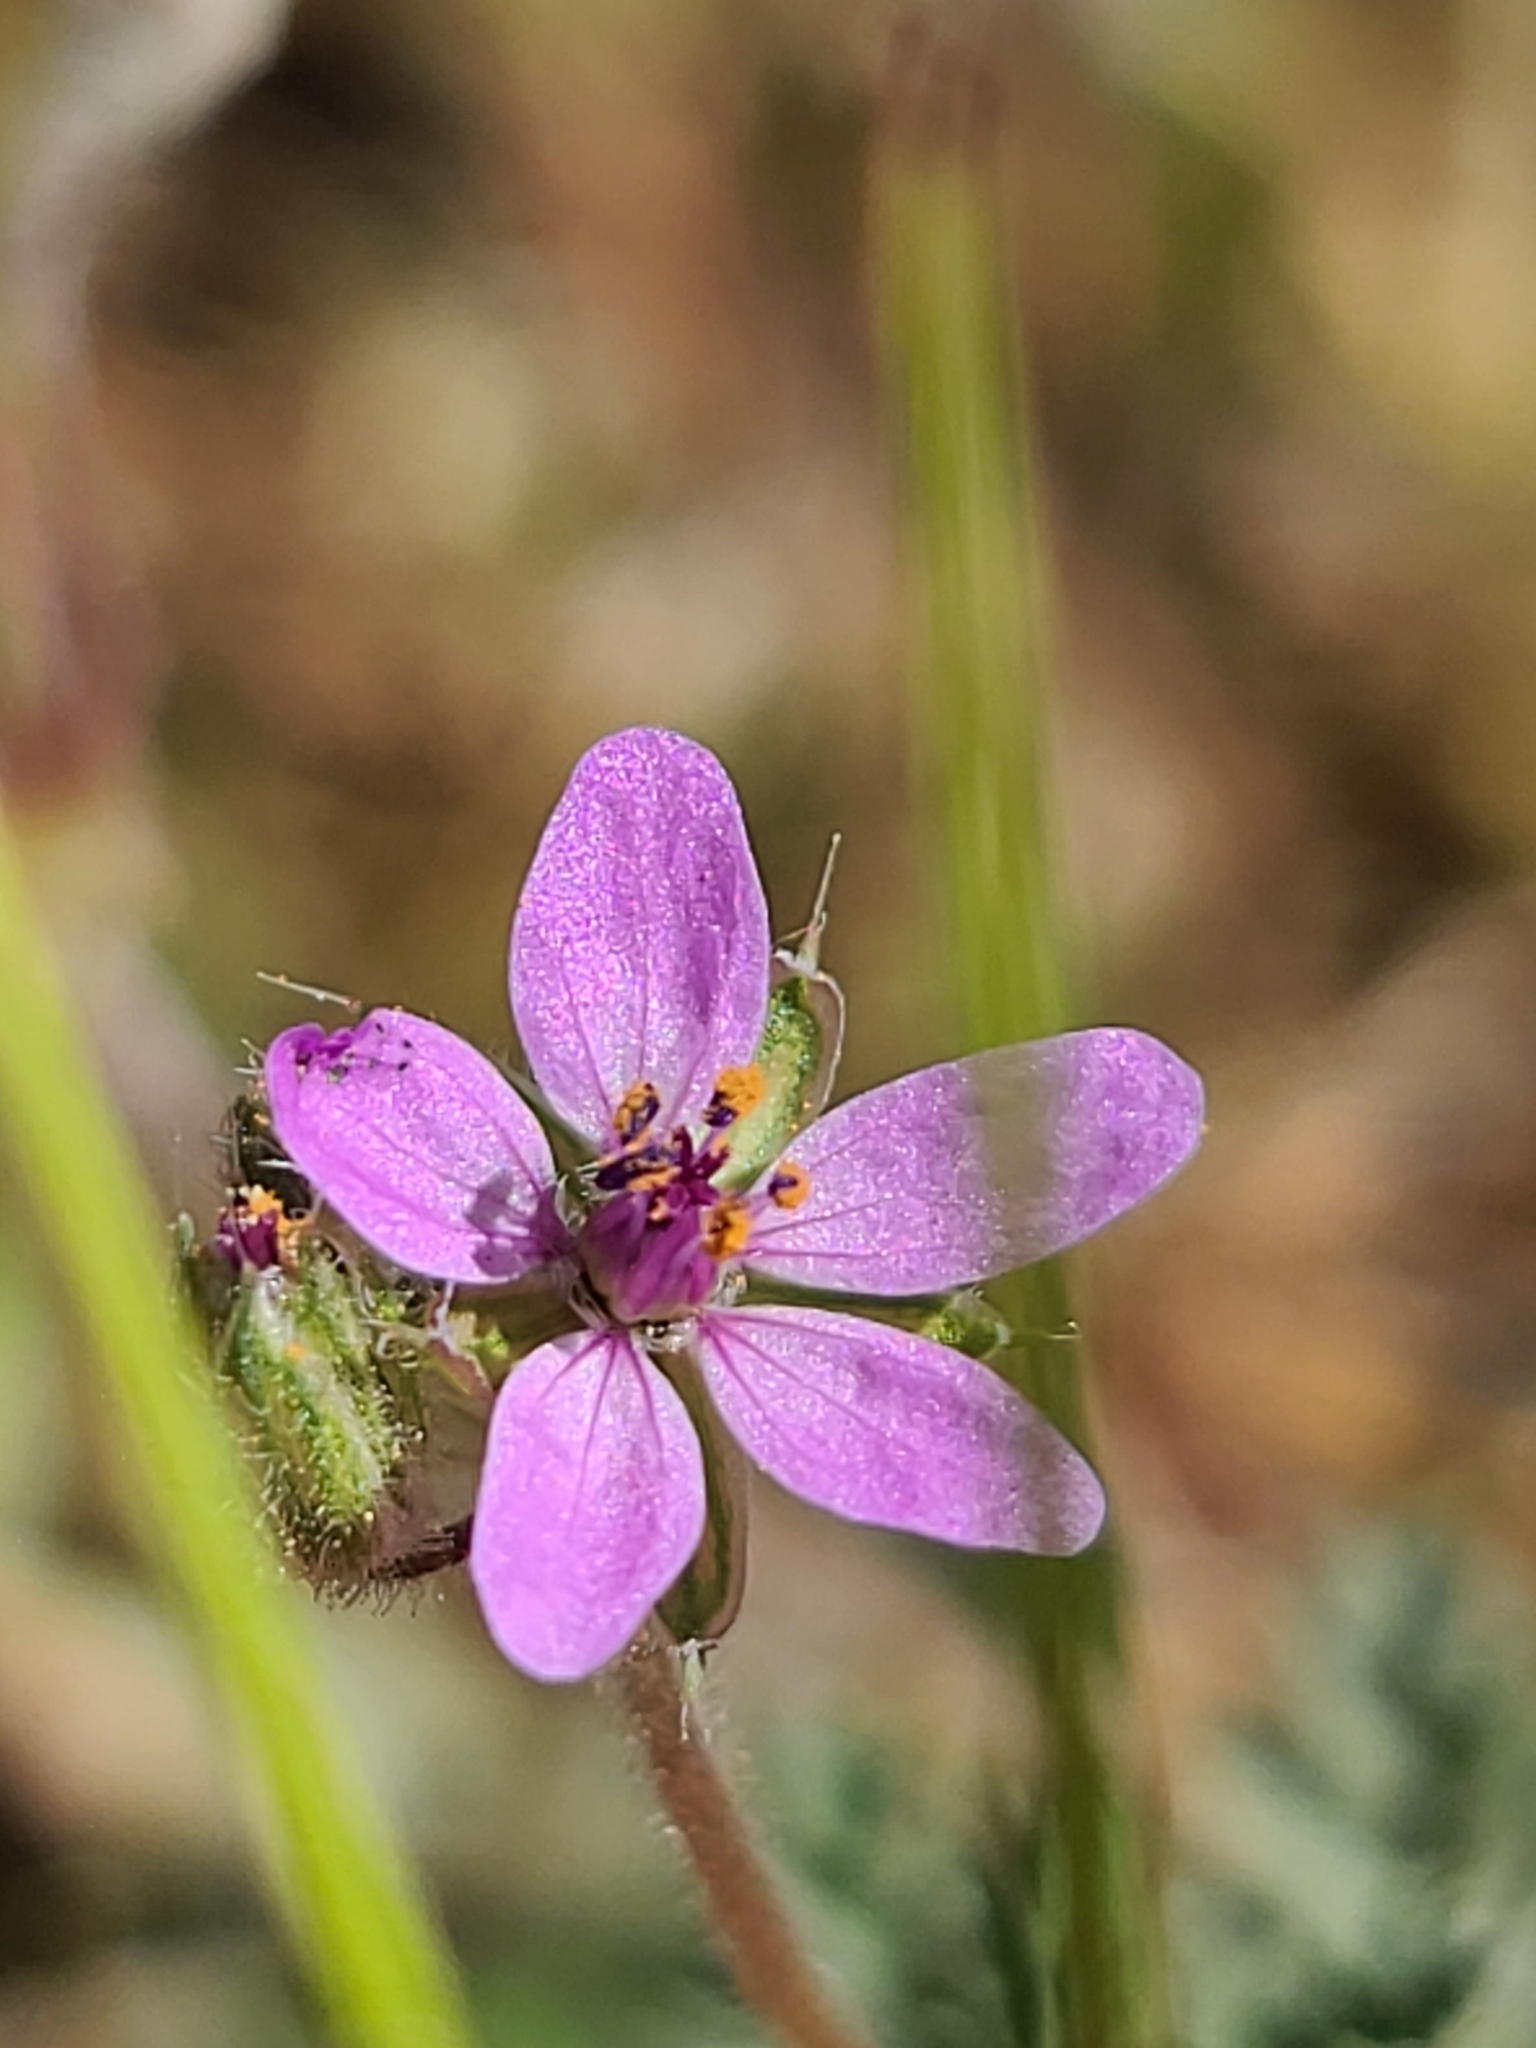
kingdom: Plantae
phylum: Tracheophyta
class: Magnoliopsida
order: Geraniales
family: Geraniaceae
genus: Erodium
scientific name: Erodium cicutarium
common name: Common stork's-bill
